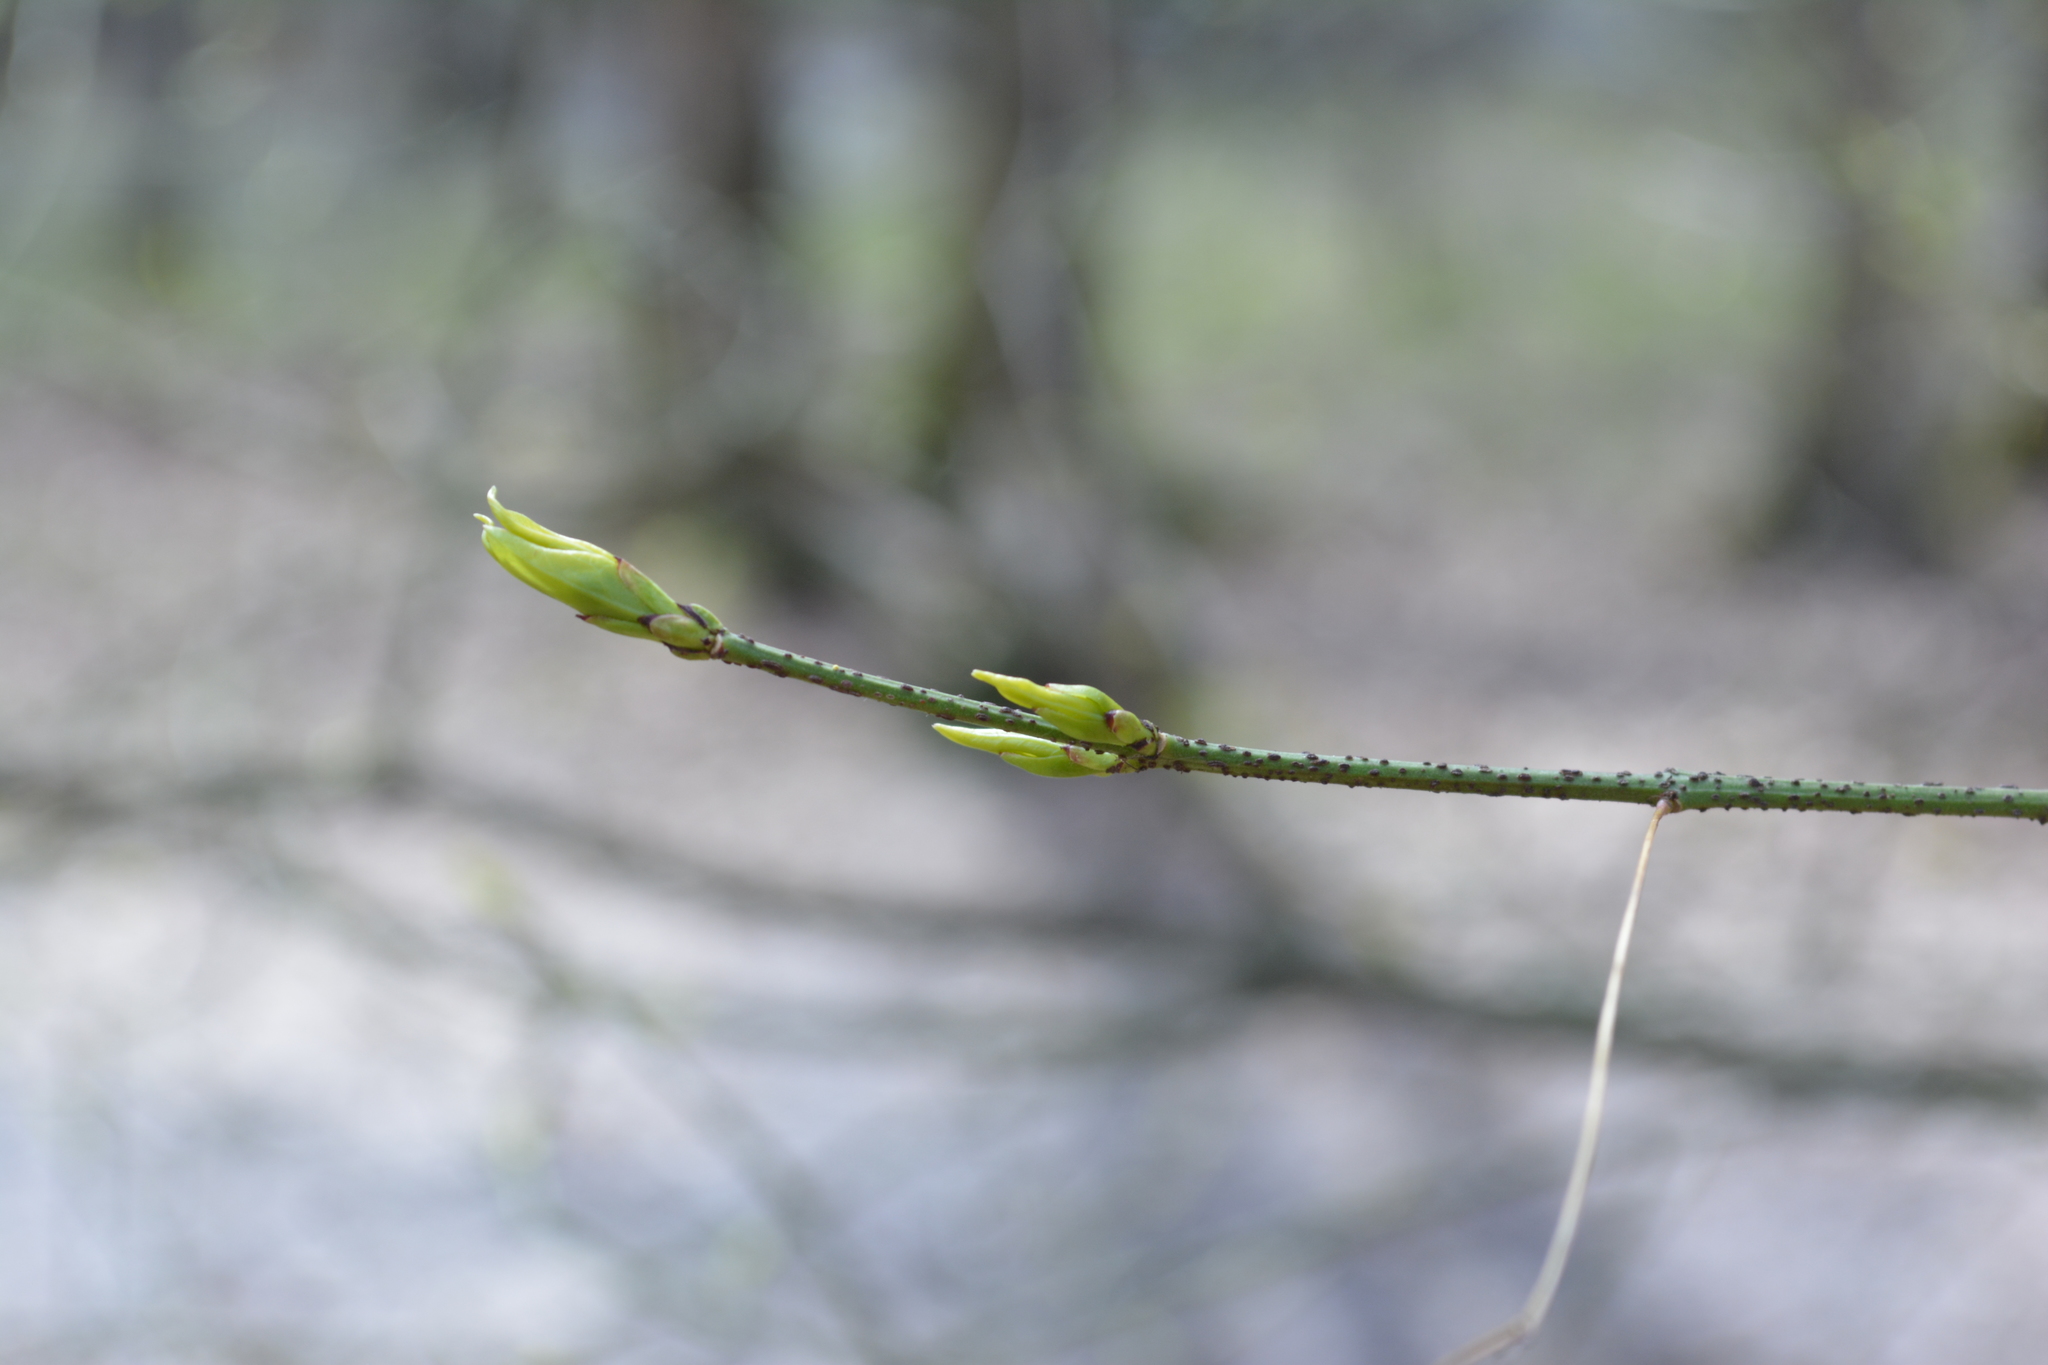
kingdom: Plantae
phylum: Tracheophyta
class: Magnoliopsida
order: Celastrales
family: Celastraceae
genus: Euonymus
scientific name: Euonymus verrucosus
